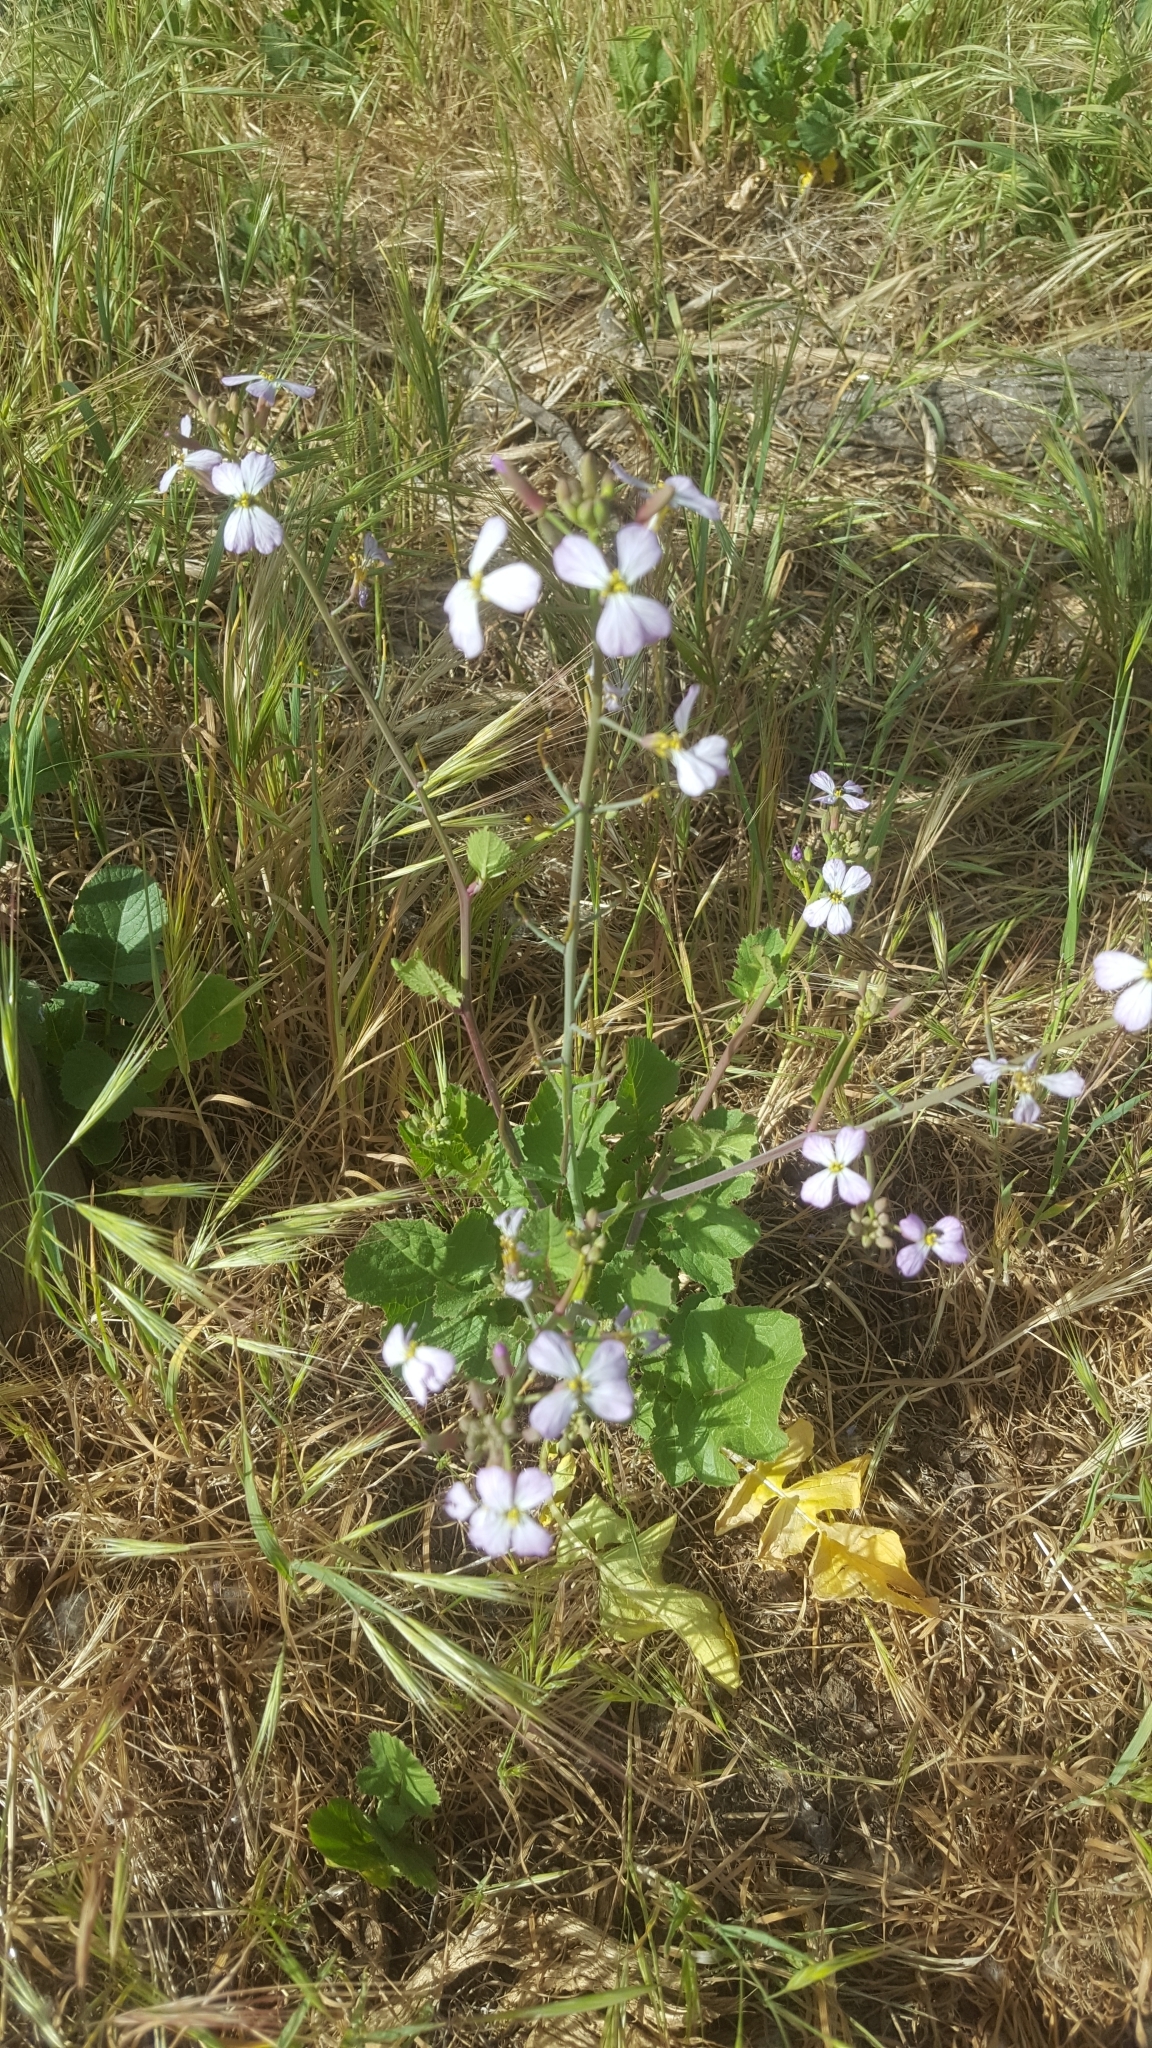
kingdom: Plantae
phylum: Tracheophyta
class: Magnoliopsida
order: Brassicales
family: Brassicaceae
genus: Raphanus
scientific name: Raphanus sativus
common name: Cultivated radish
